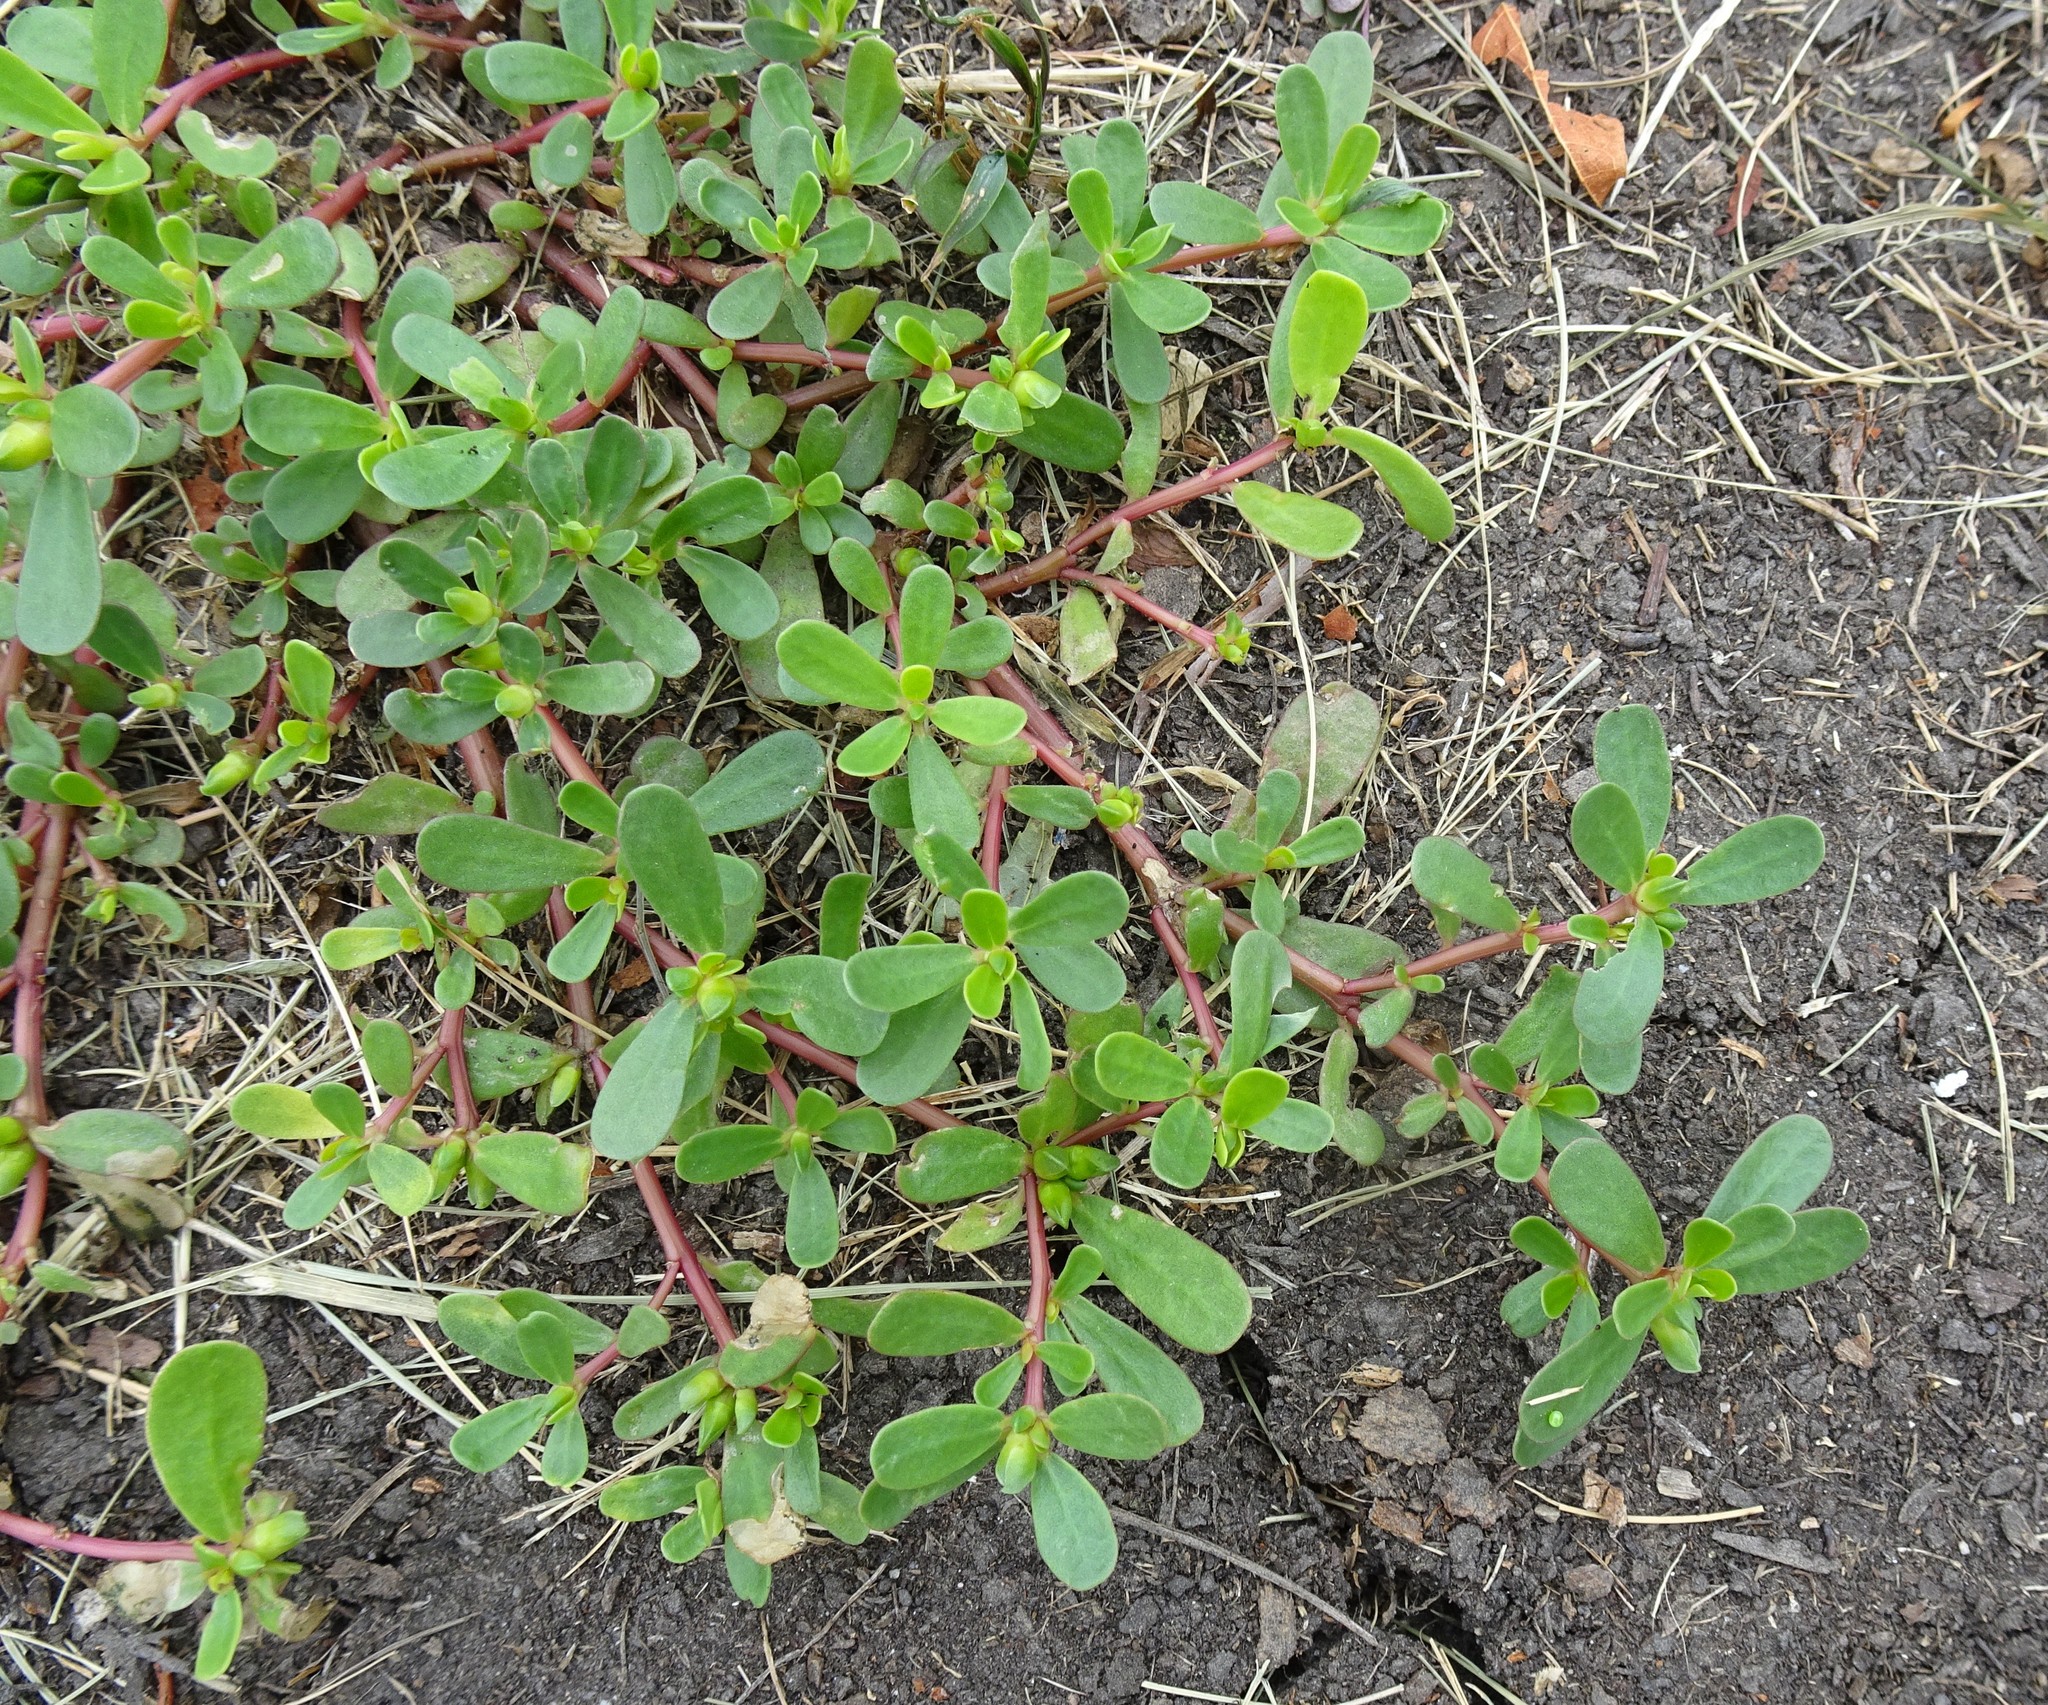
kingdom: Plantae
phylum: Tracheophyta
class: Magnoliopsida
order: Caryophyllales
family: Portulacaceae
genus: Portulaca
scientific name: Portulaca oleracea
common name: Common purslane
